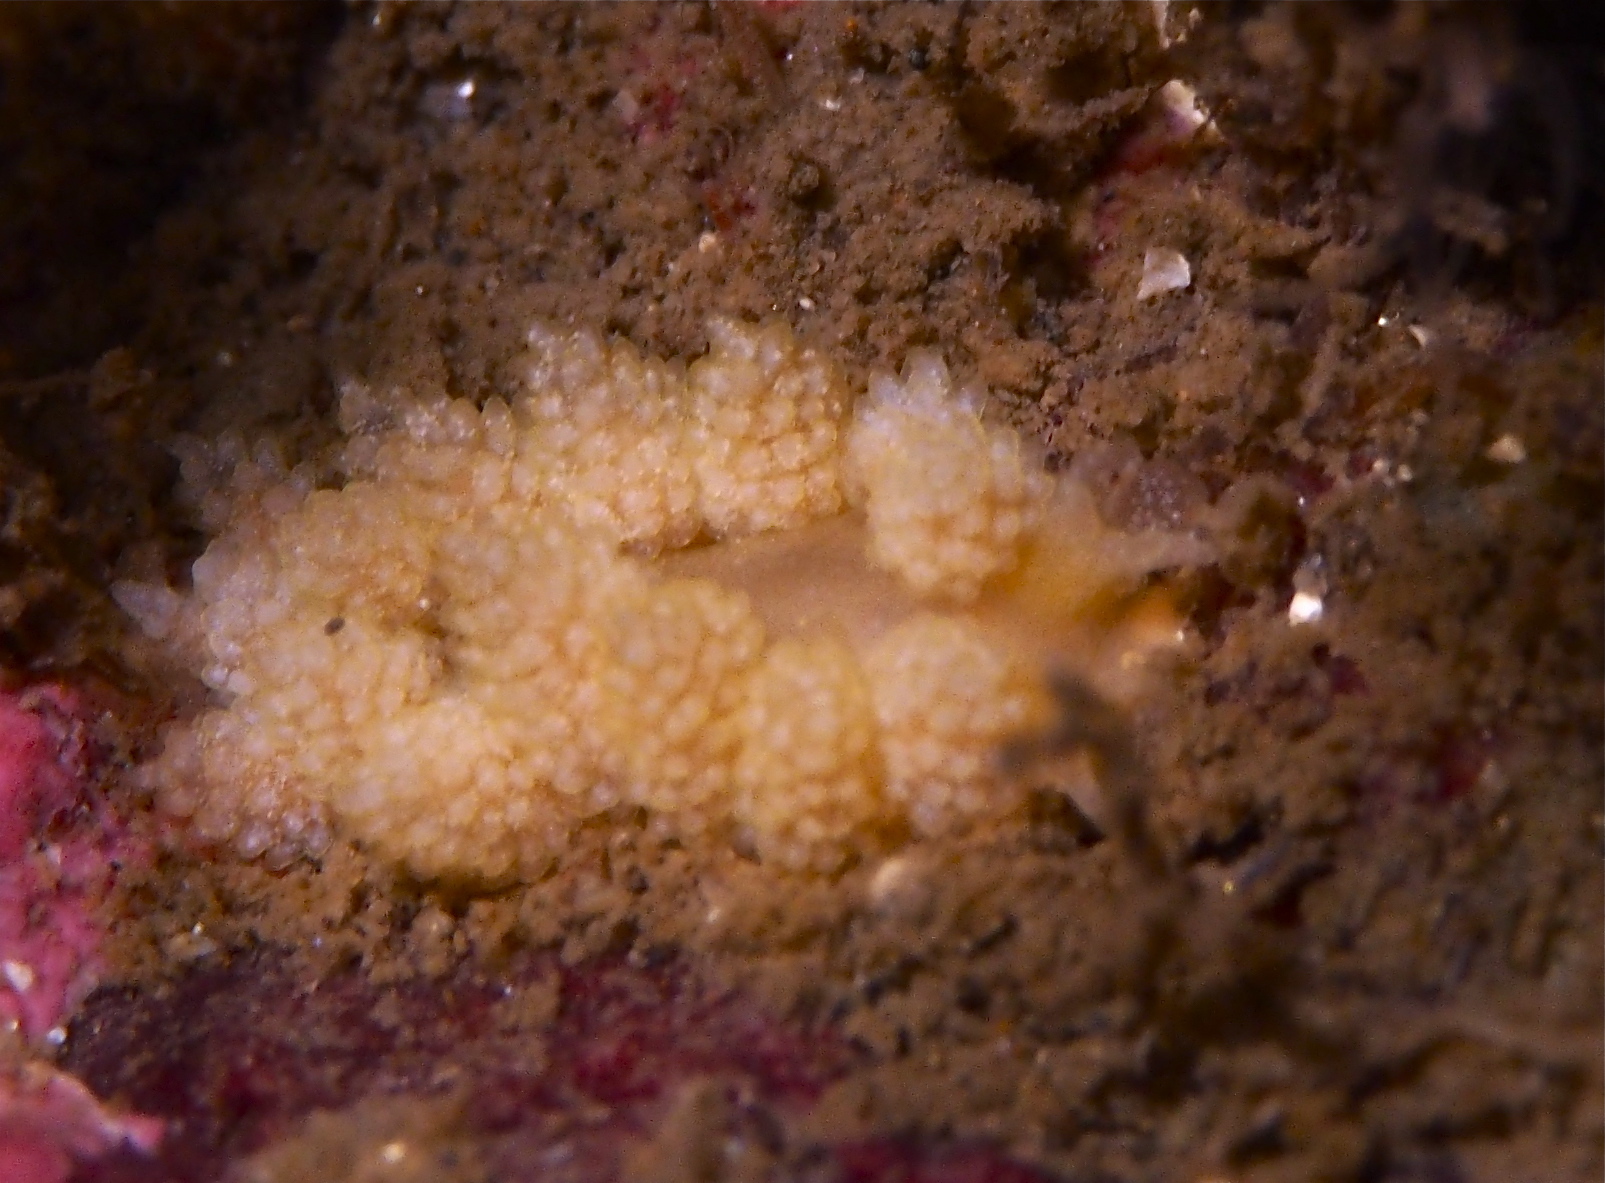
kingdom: Animalia
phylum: Mollusca
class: Gastropoda
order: Nudibranchia
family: Dotidae
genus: Doto
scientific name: Doto fragilis
